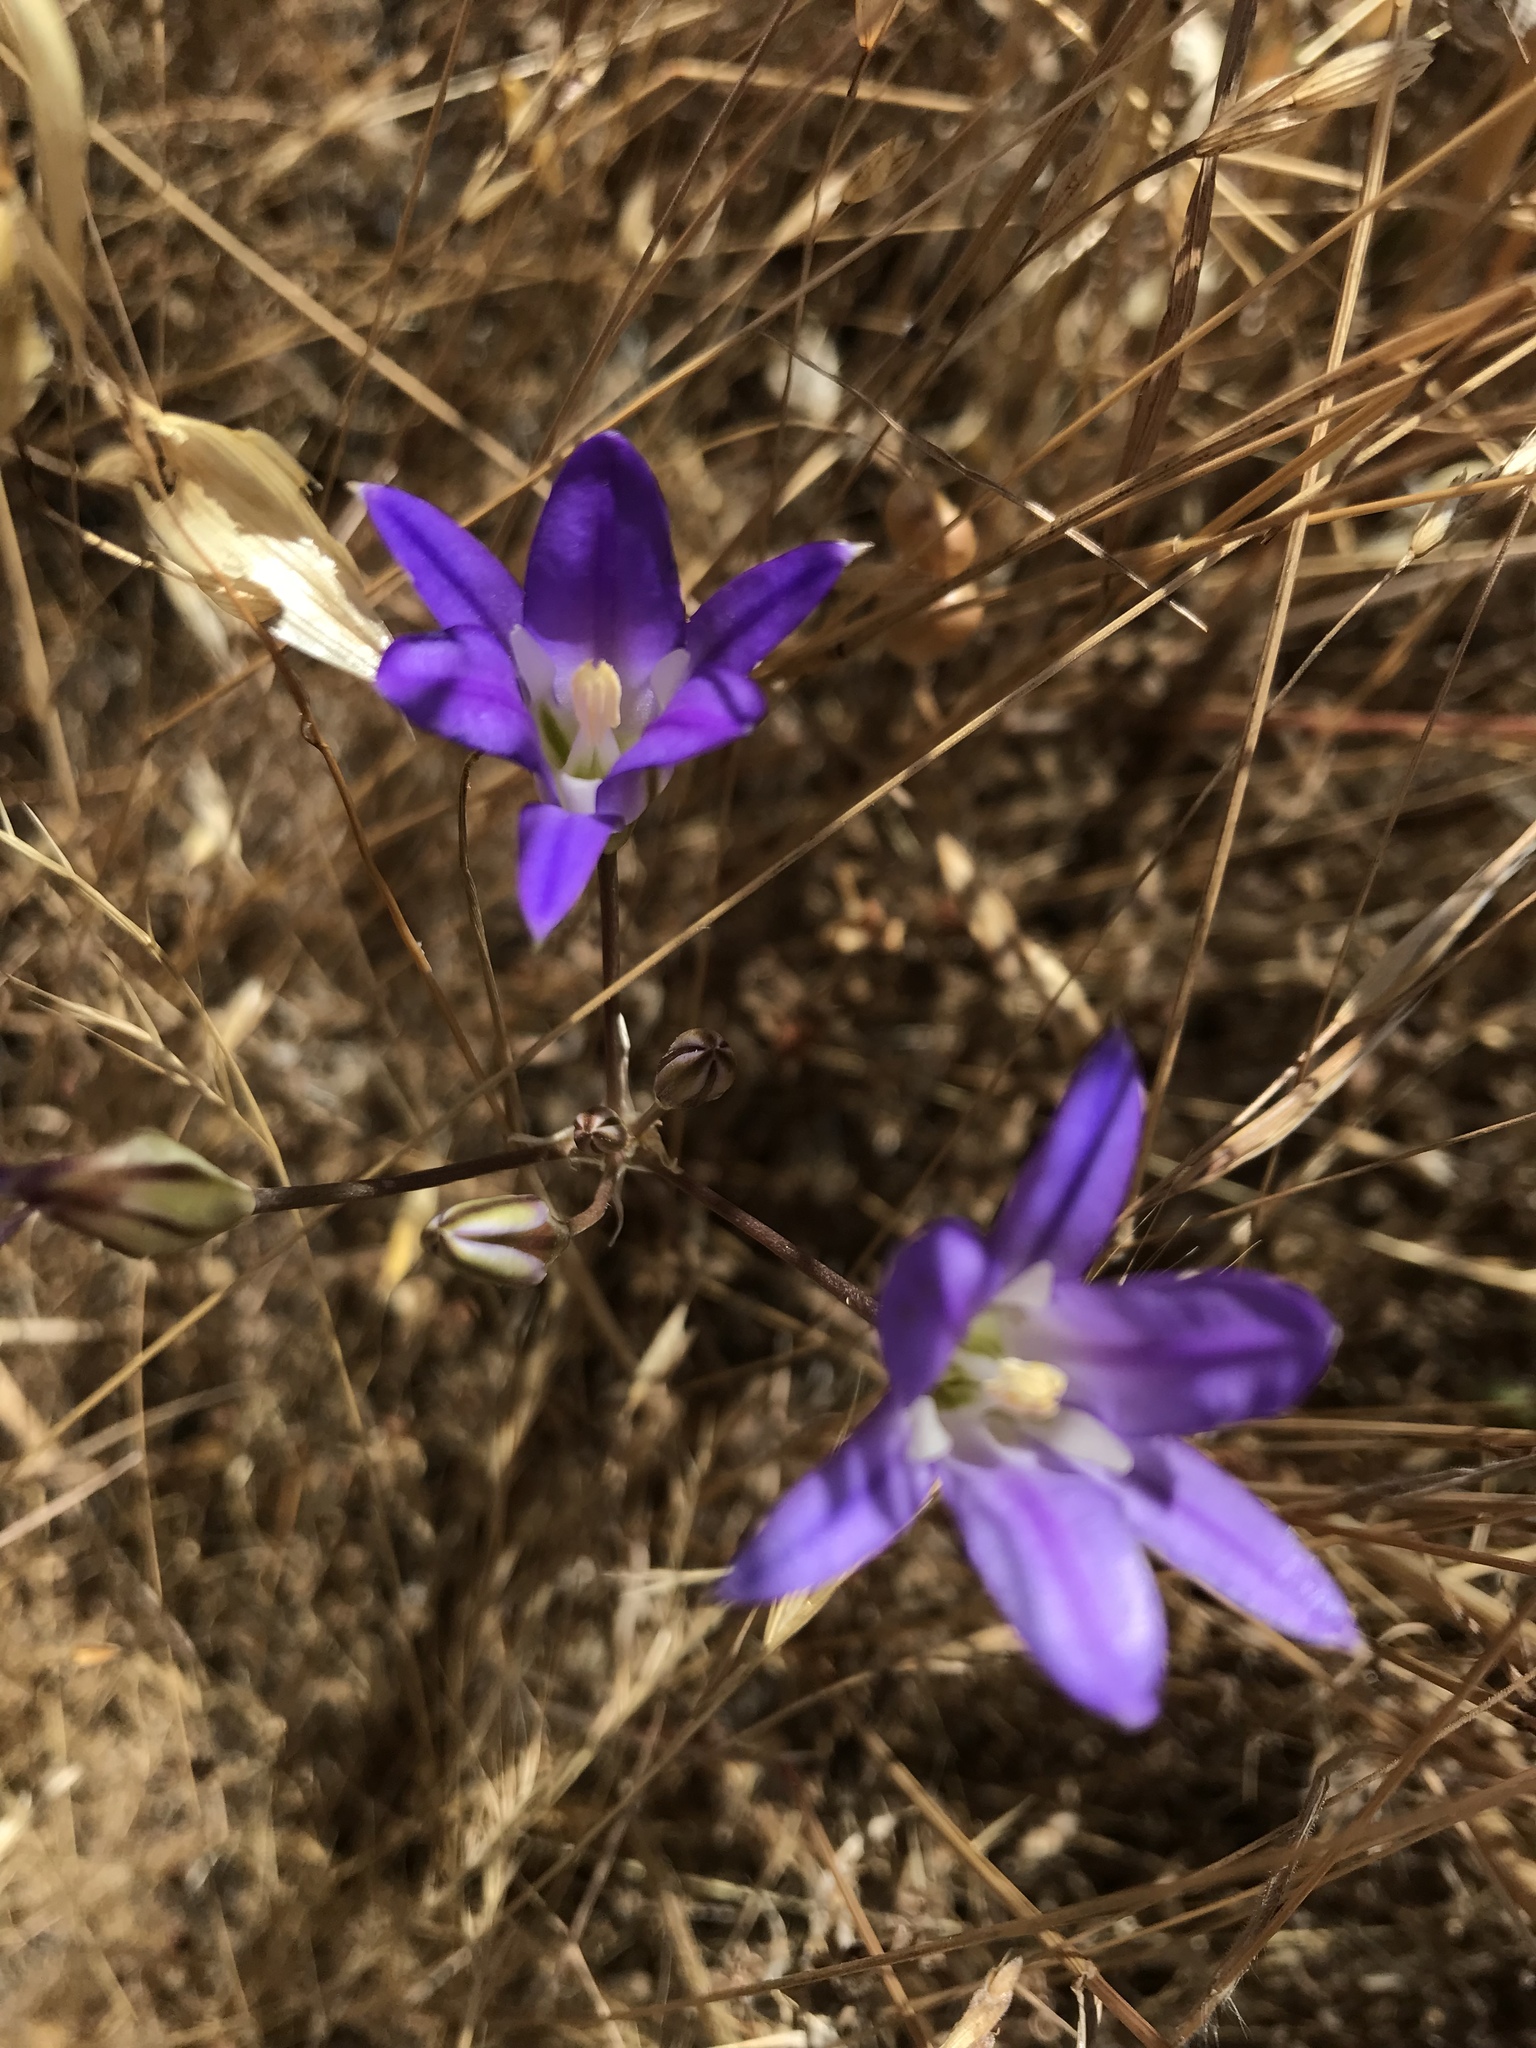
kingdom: Plantae
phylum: Tracheophyta
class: Liliopsida
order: Asparagales
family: Asparagaceae
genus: Brodiaea
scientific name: Brodiaea elegans
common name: Elegant cluster-lily
